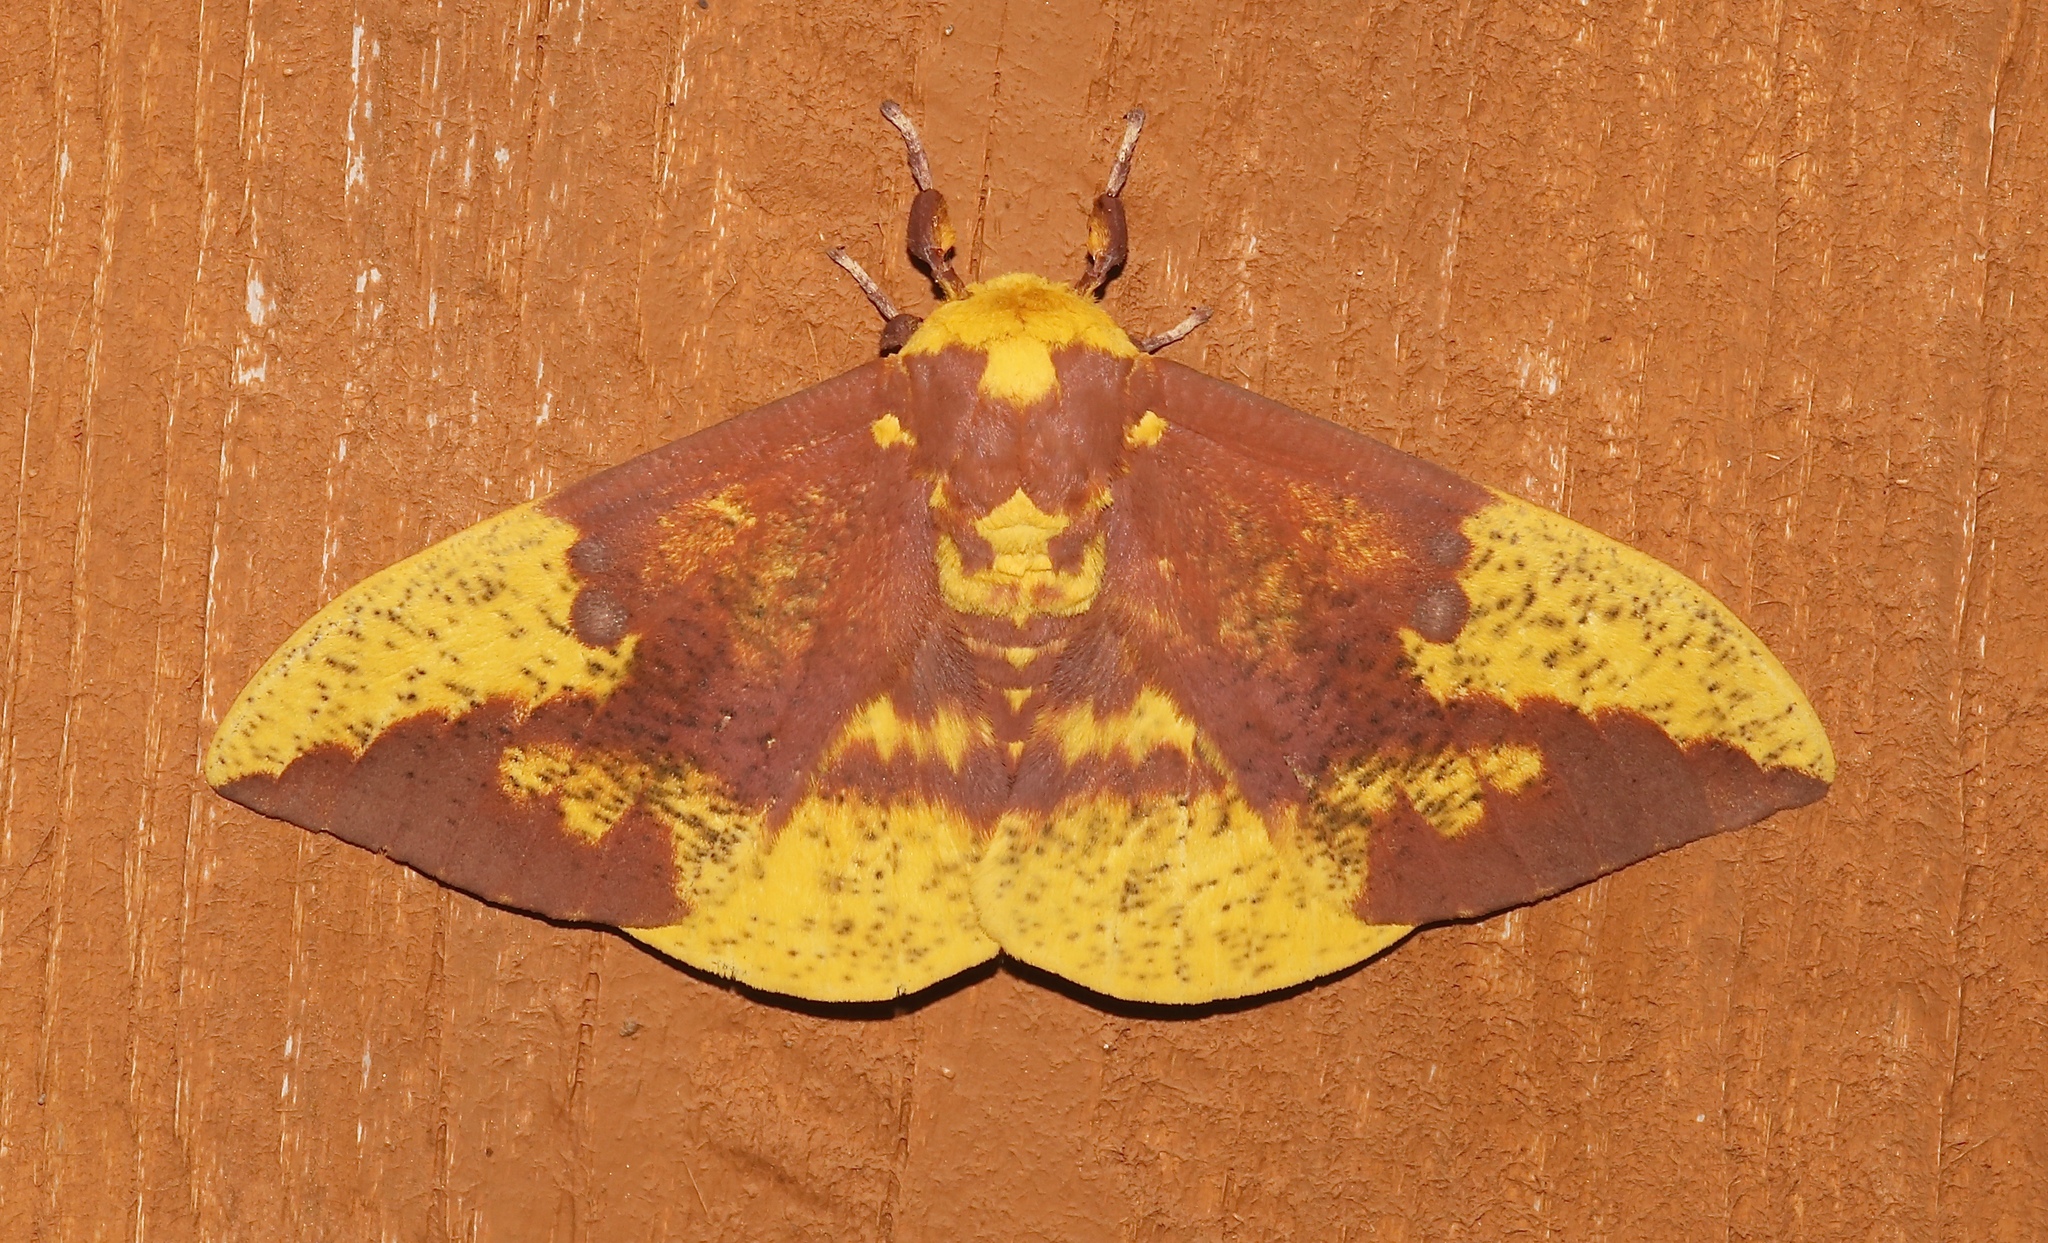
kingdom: Animalia
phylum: Arthropoda
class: Insecta
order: Lepidoptera
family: Saturniidae
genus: Eacles
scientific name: Eacles imperialis
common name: Imperial moth
